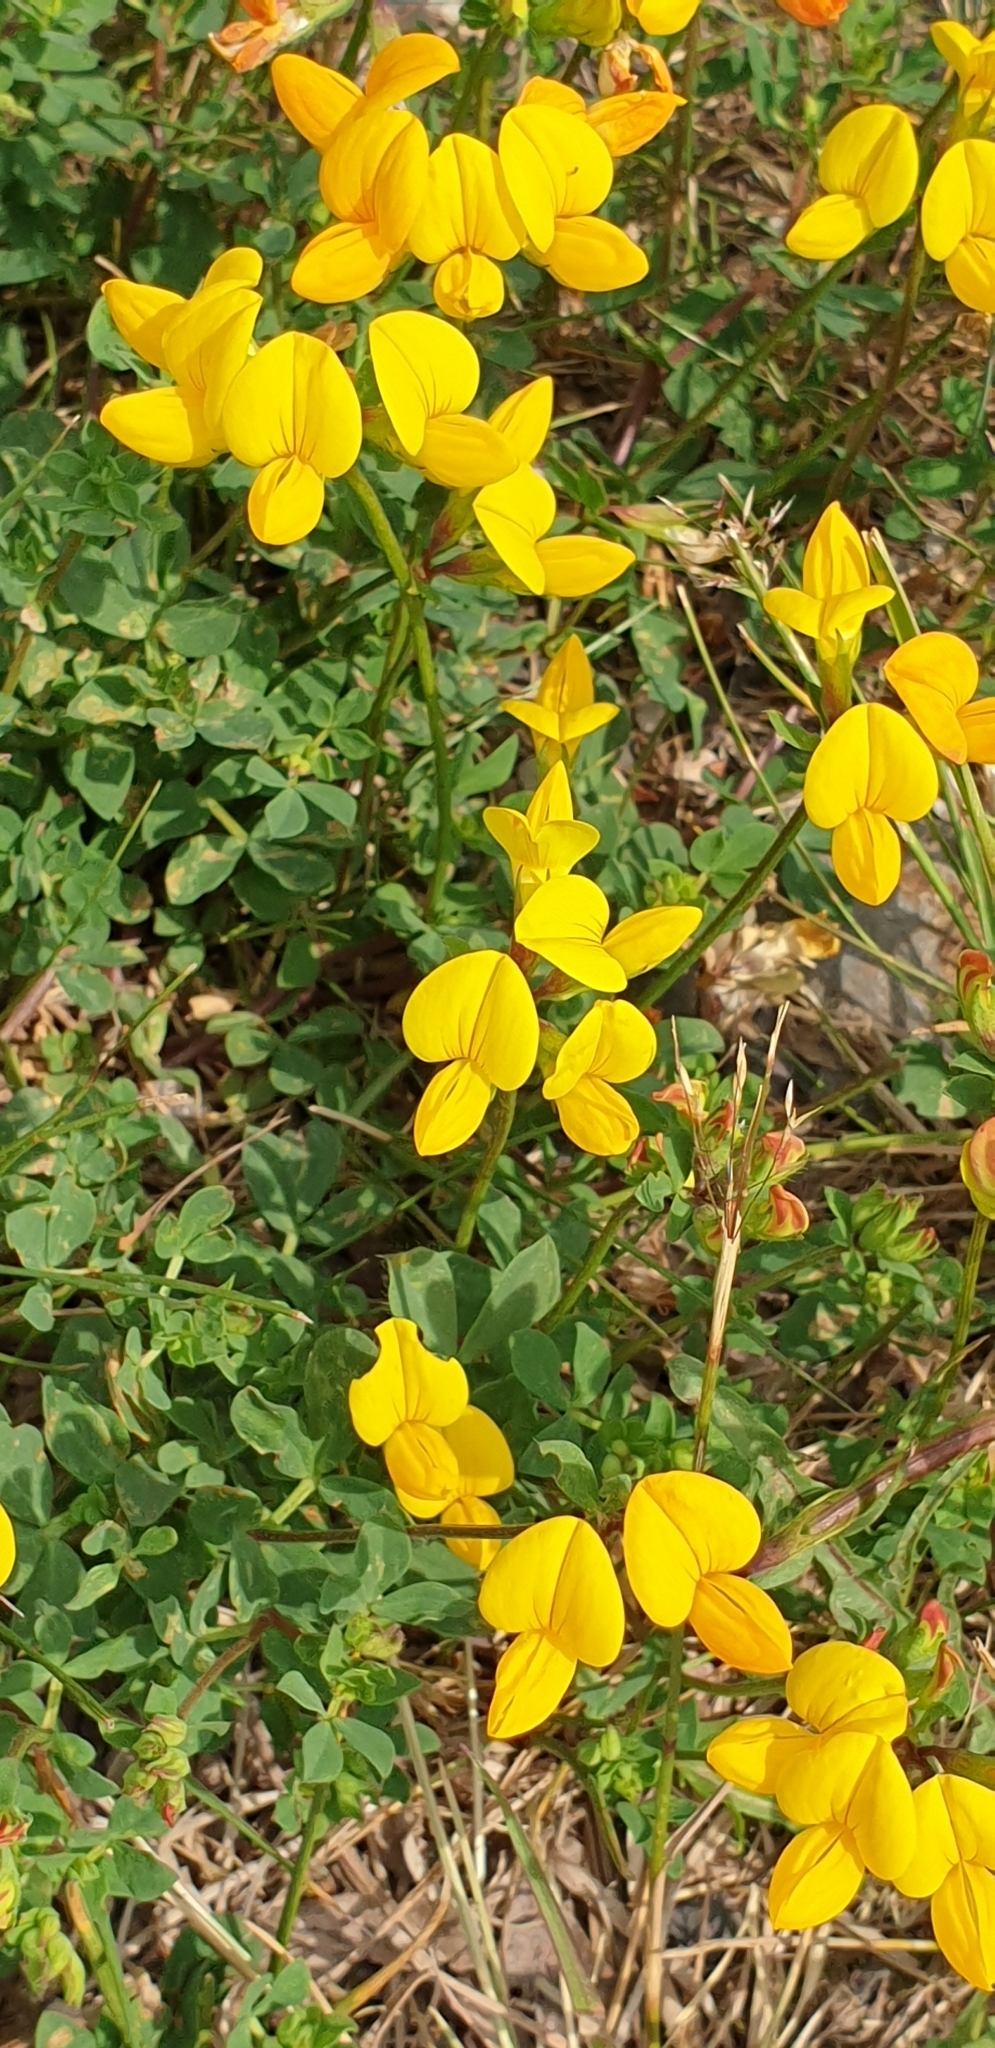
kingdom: Plantae
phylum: Tracheophyta
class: Magnoliopsida
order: Fabales
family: Fabaceae
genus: Lotus
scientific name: Lotus corniculatus
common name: Common bird's-foot-trefoil
